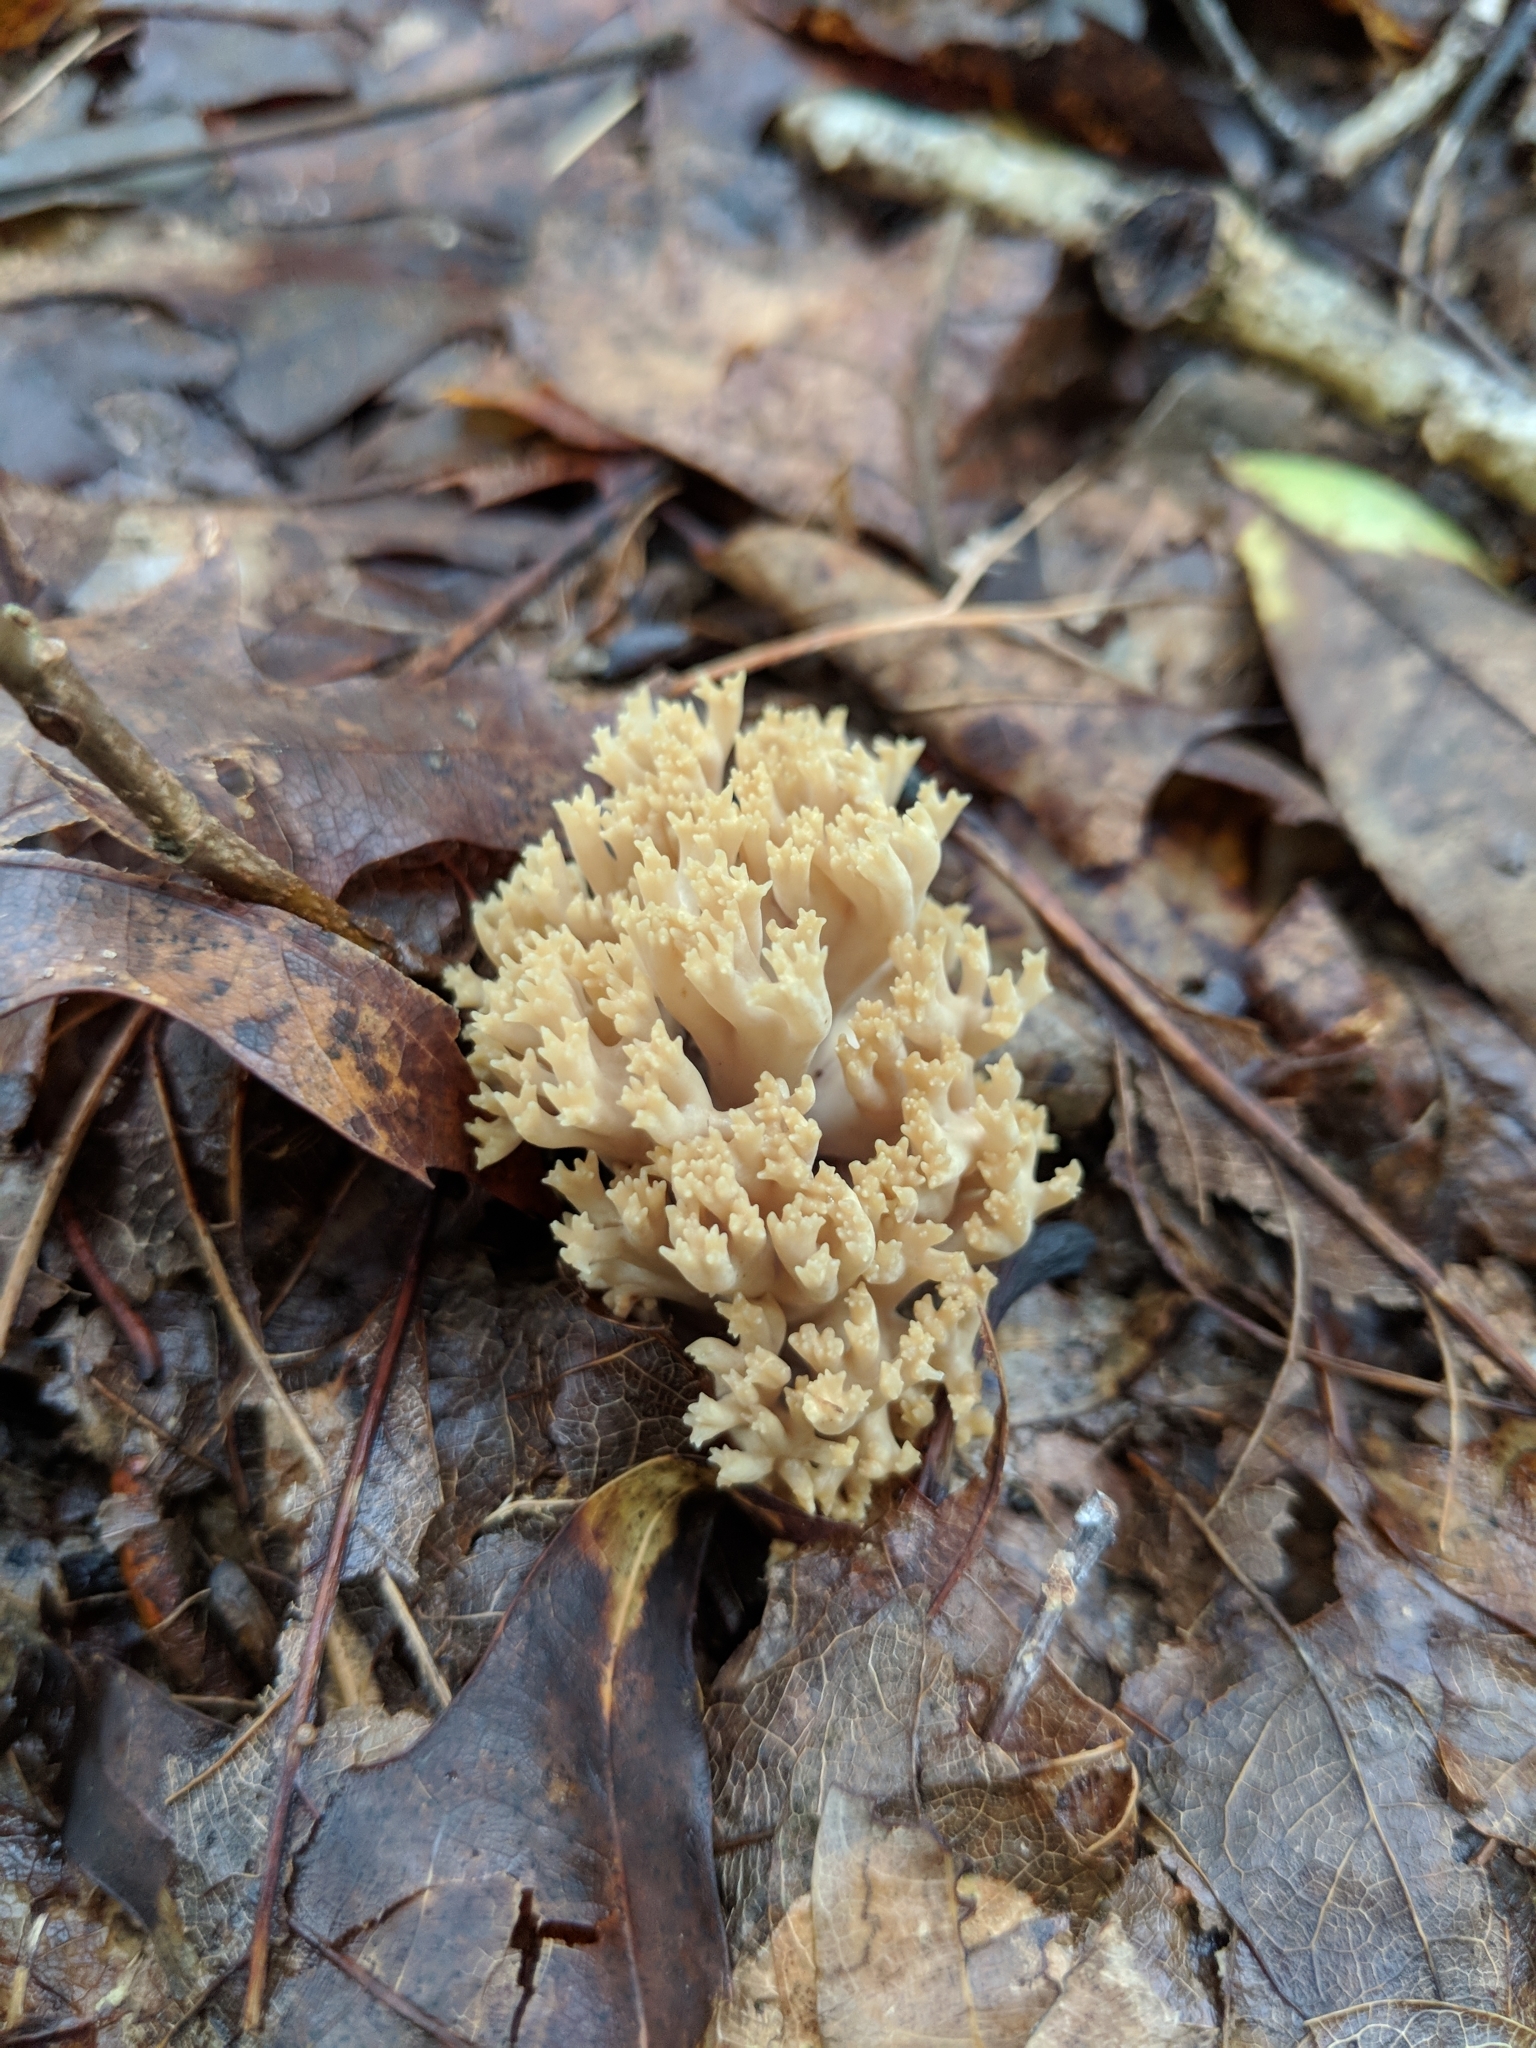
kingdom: Fungi
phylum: Basidiomycota
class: Agaricomycetes
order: Russulales
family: Auriscalpiaceae
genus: Artomyces
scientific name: Artomyces pyxidatus
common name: Crown-tipped coral fungus
